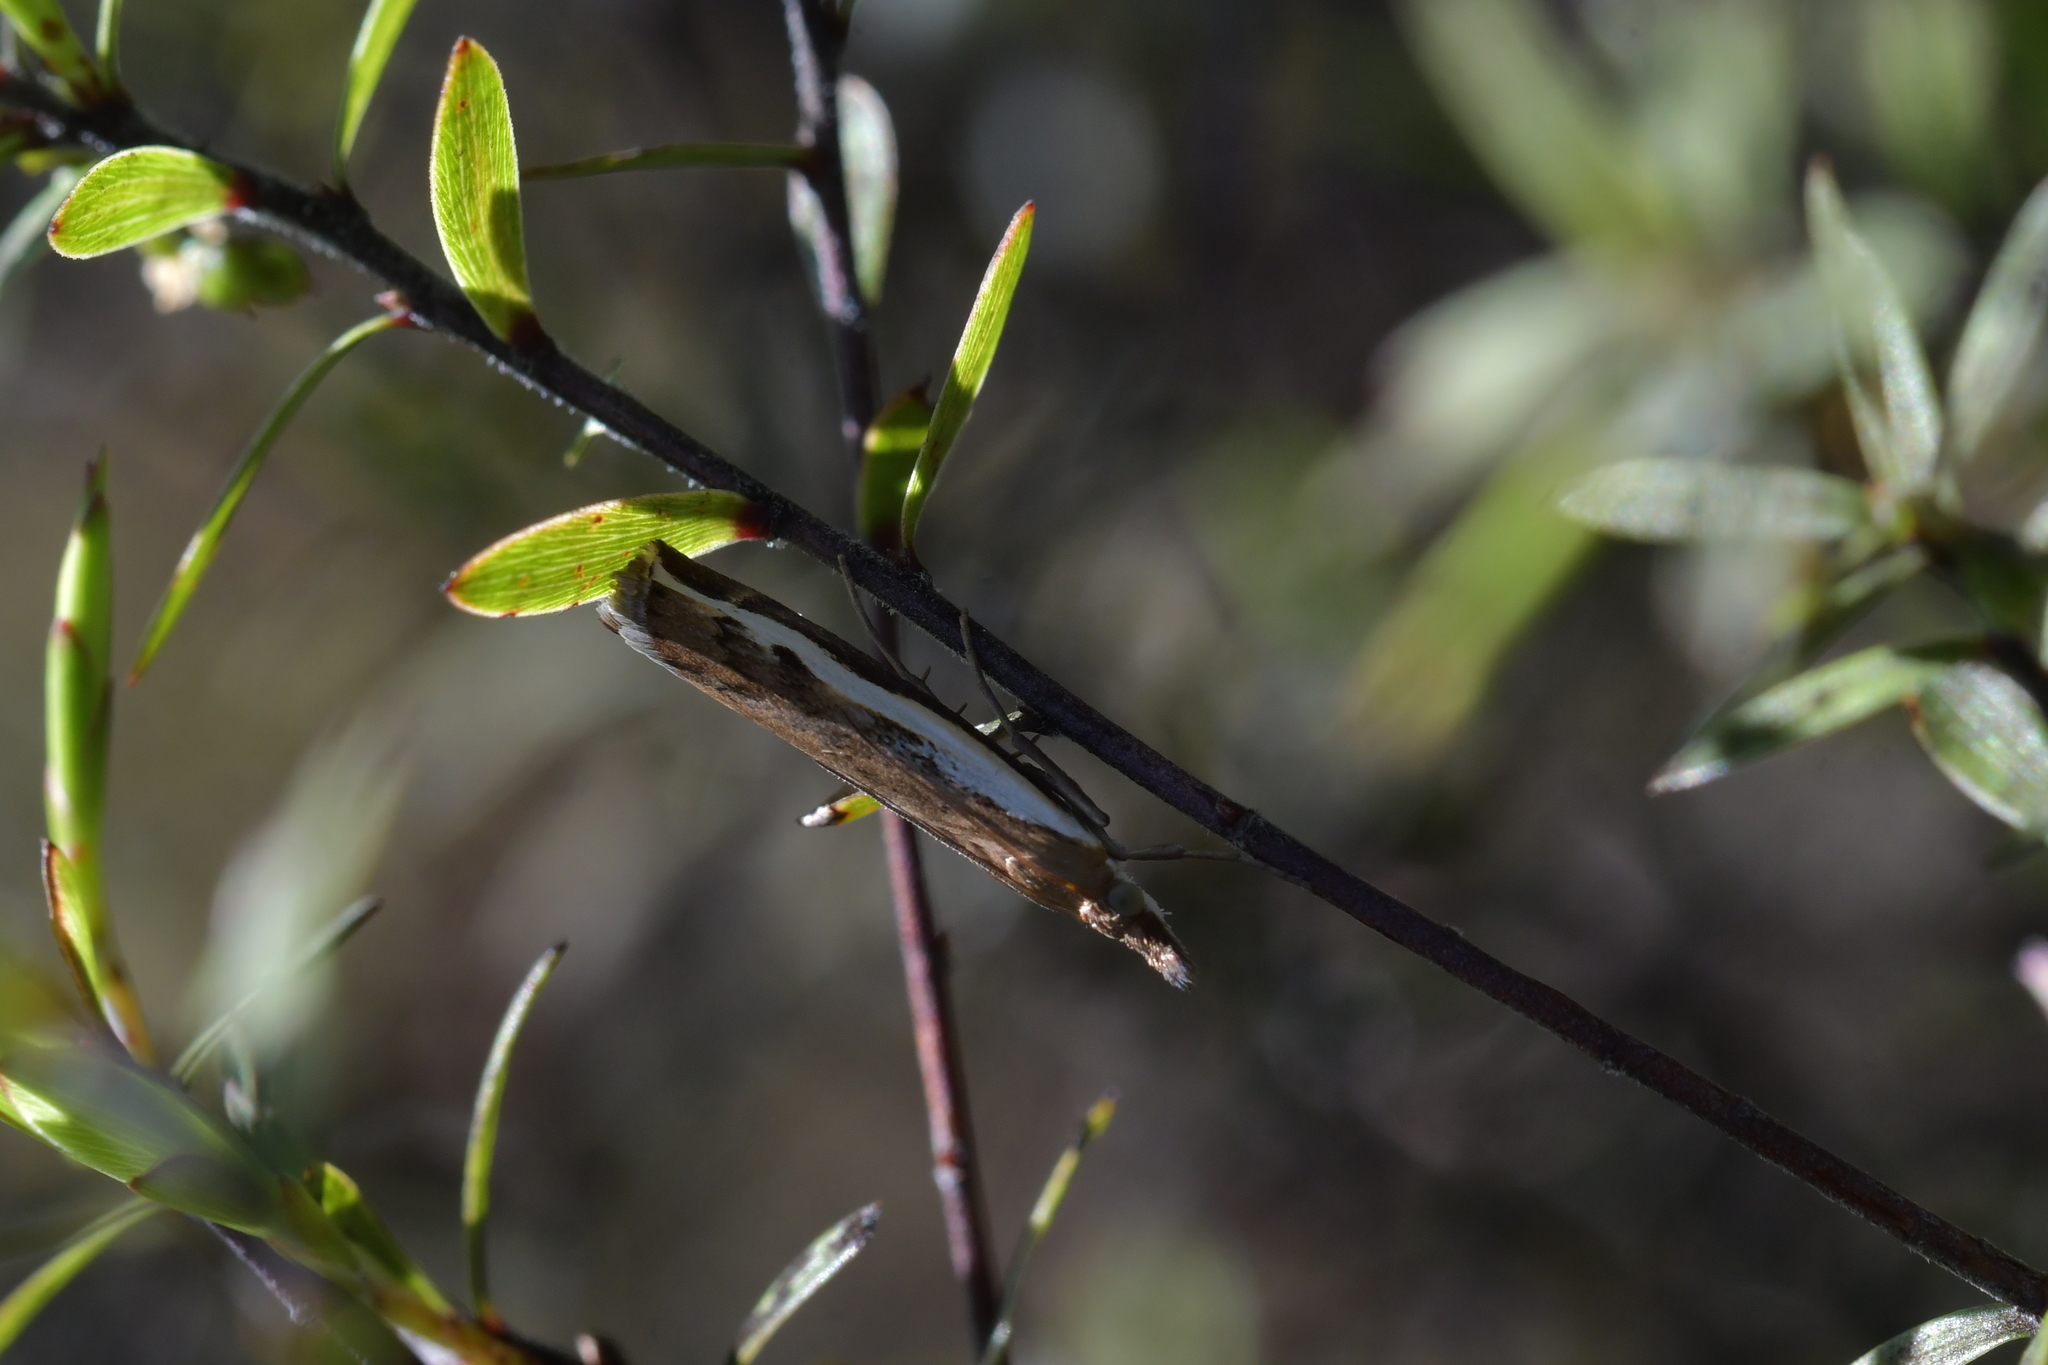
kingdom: Animalia
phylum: Arthropoda
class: Insecta
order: Lepidoptera
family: Crambidae
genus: Orocrambus
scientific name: Orocrambus flexuosellus
